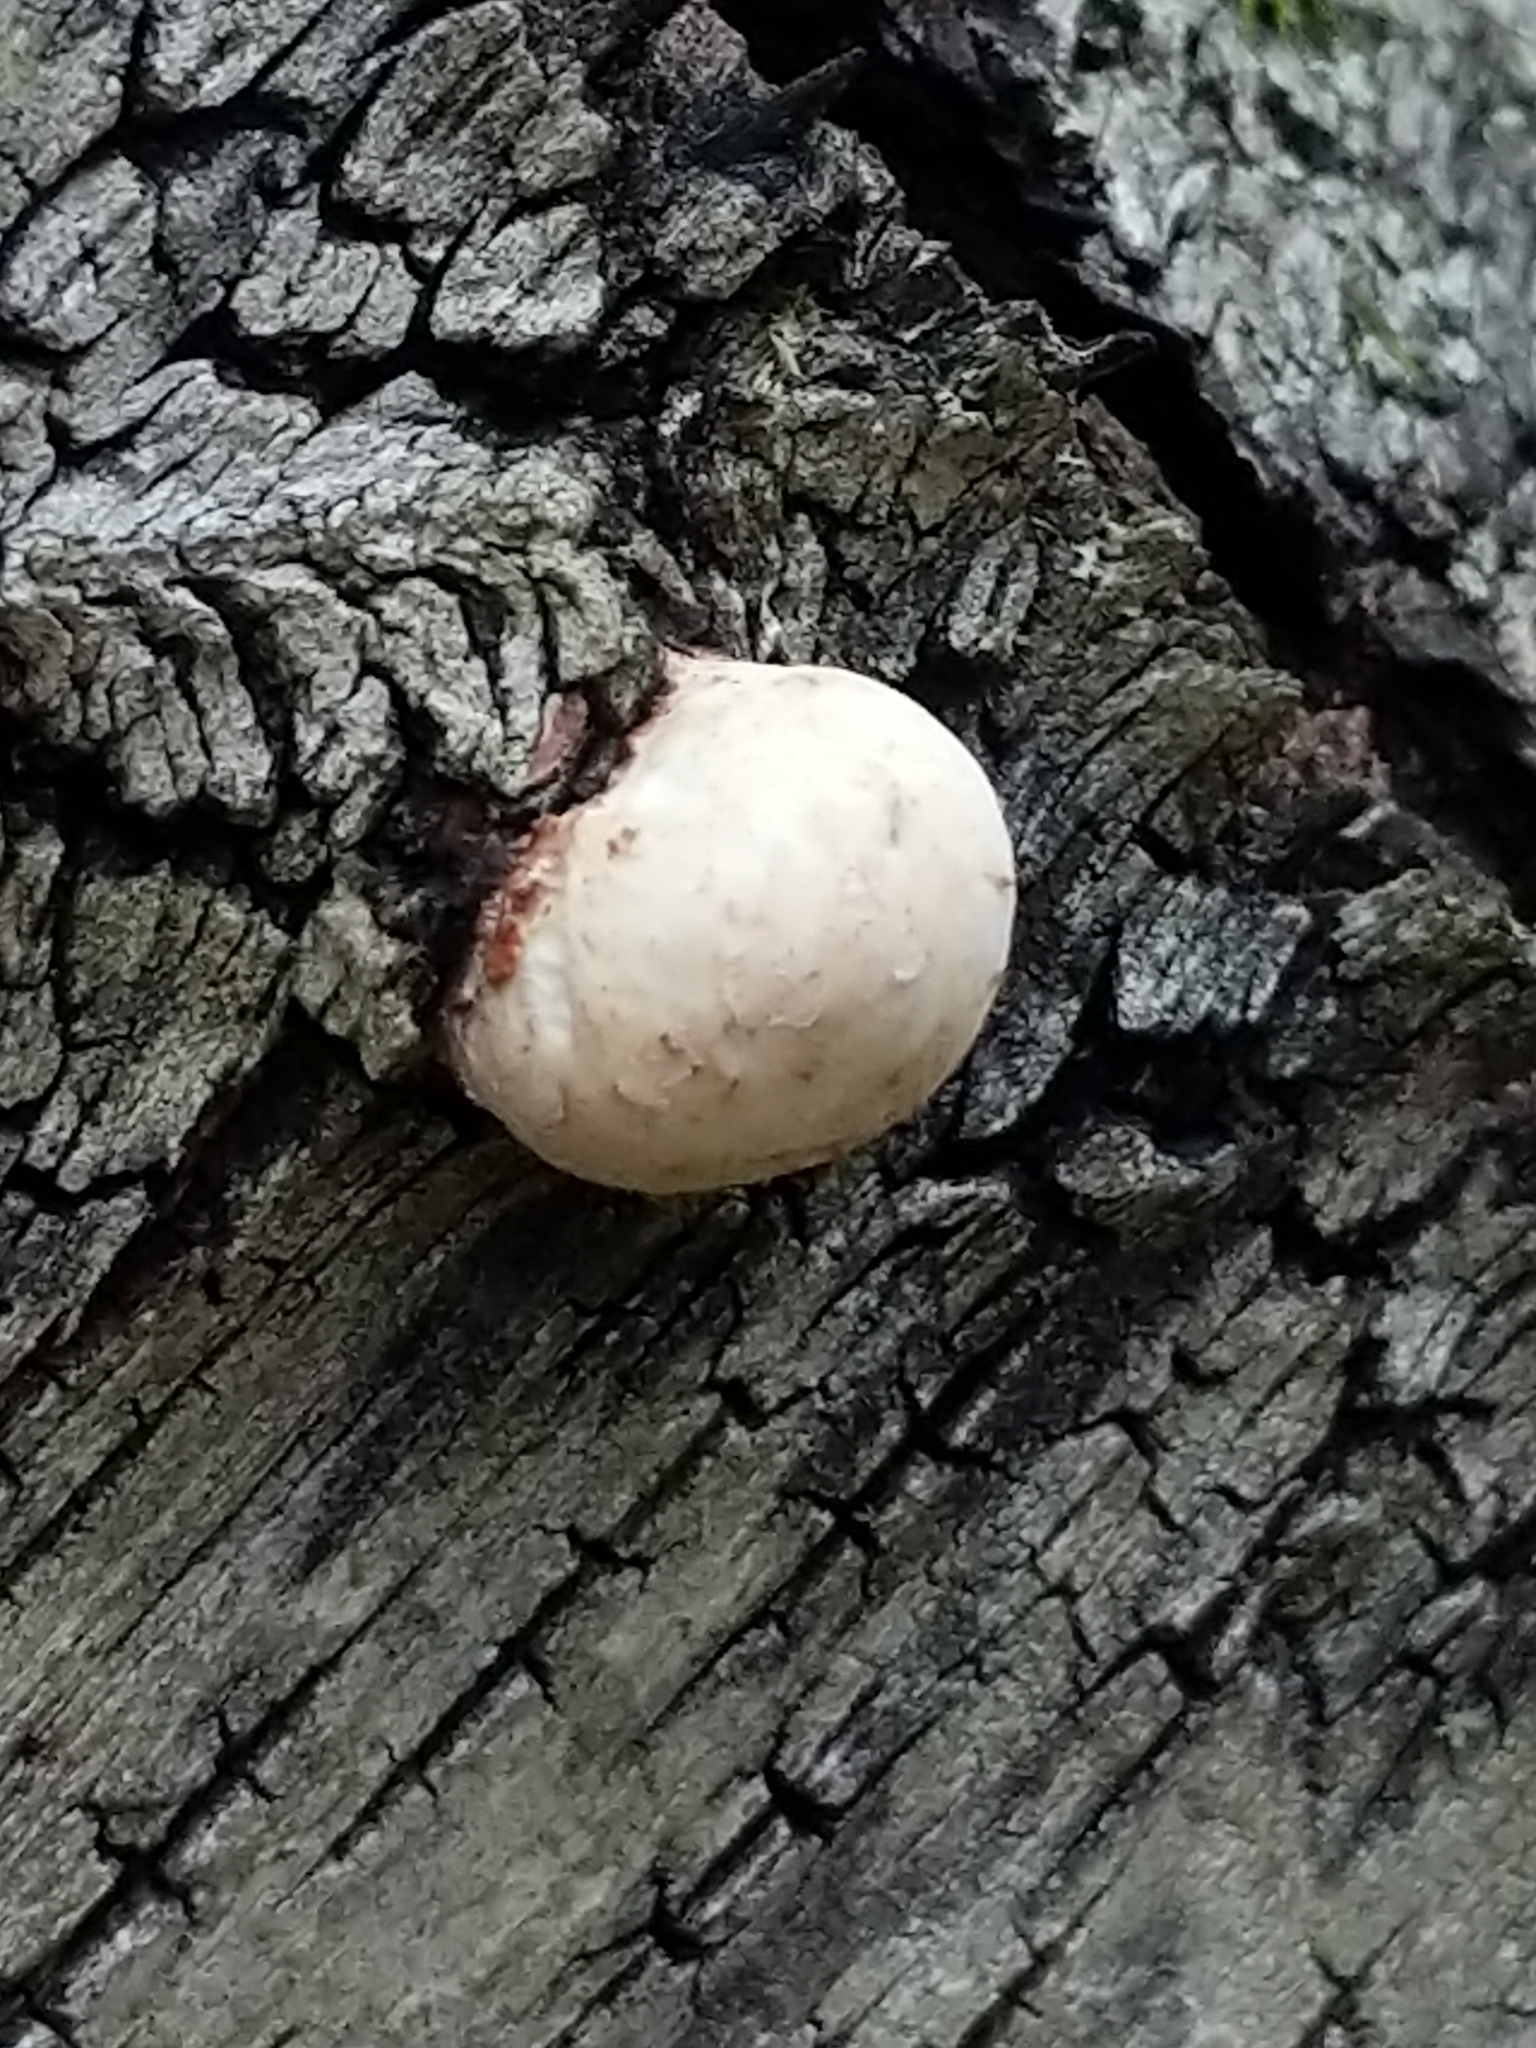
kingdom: Fungi
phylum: Basidiomycota
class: Agaricomycetes
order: Polyporales
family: Fomitopsidaceae
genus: Fomitopsis
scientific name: Fomitopsis betulina
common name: Birch polypore
